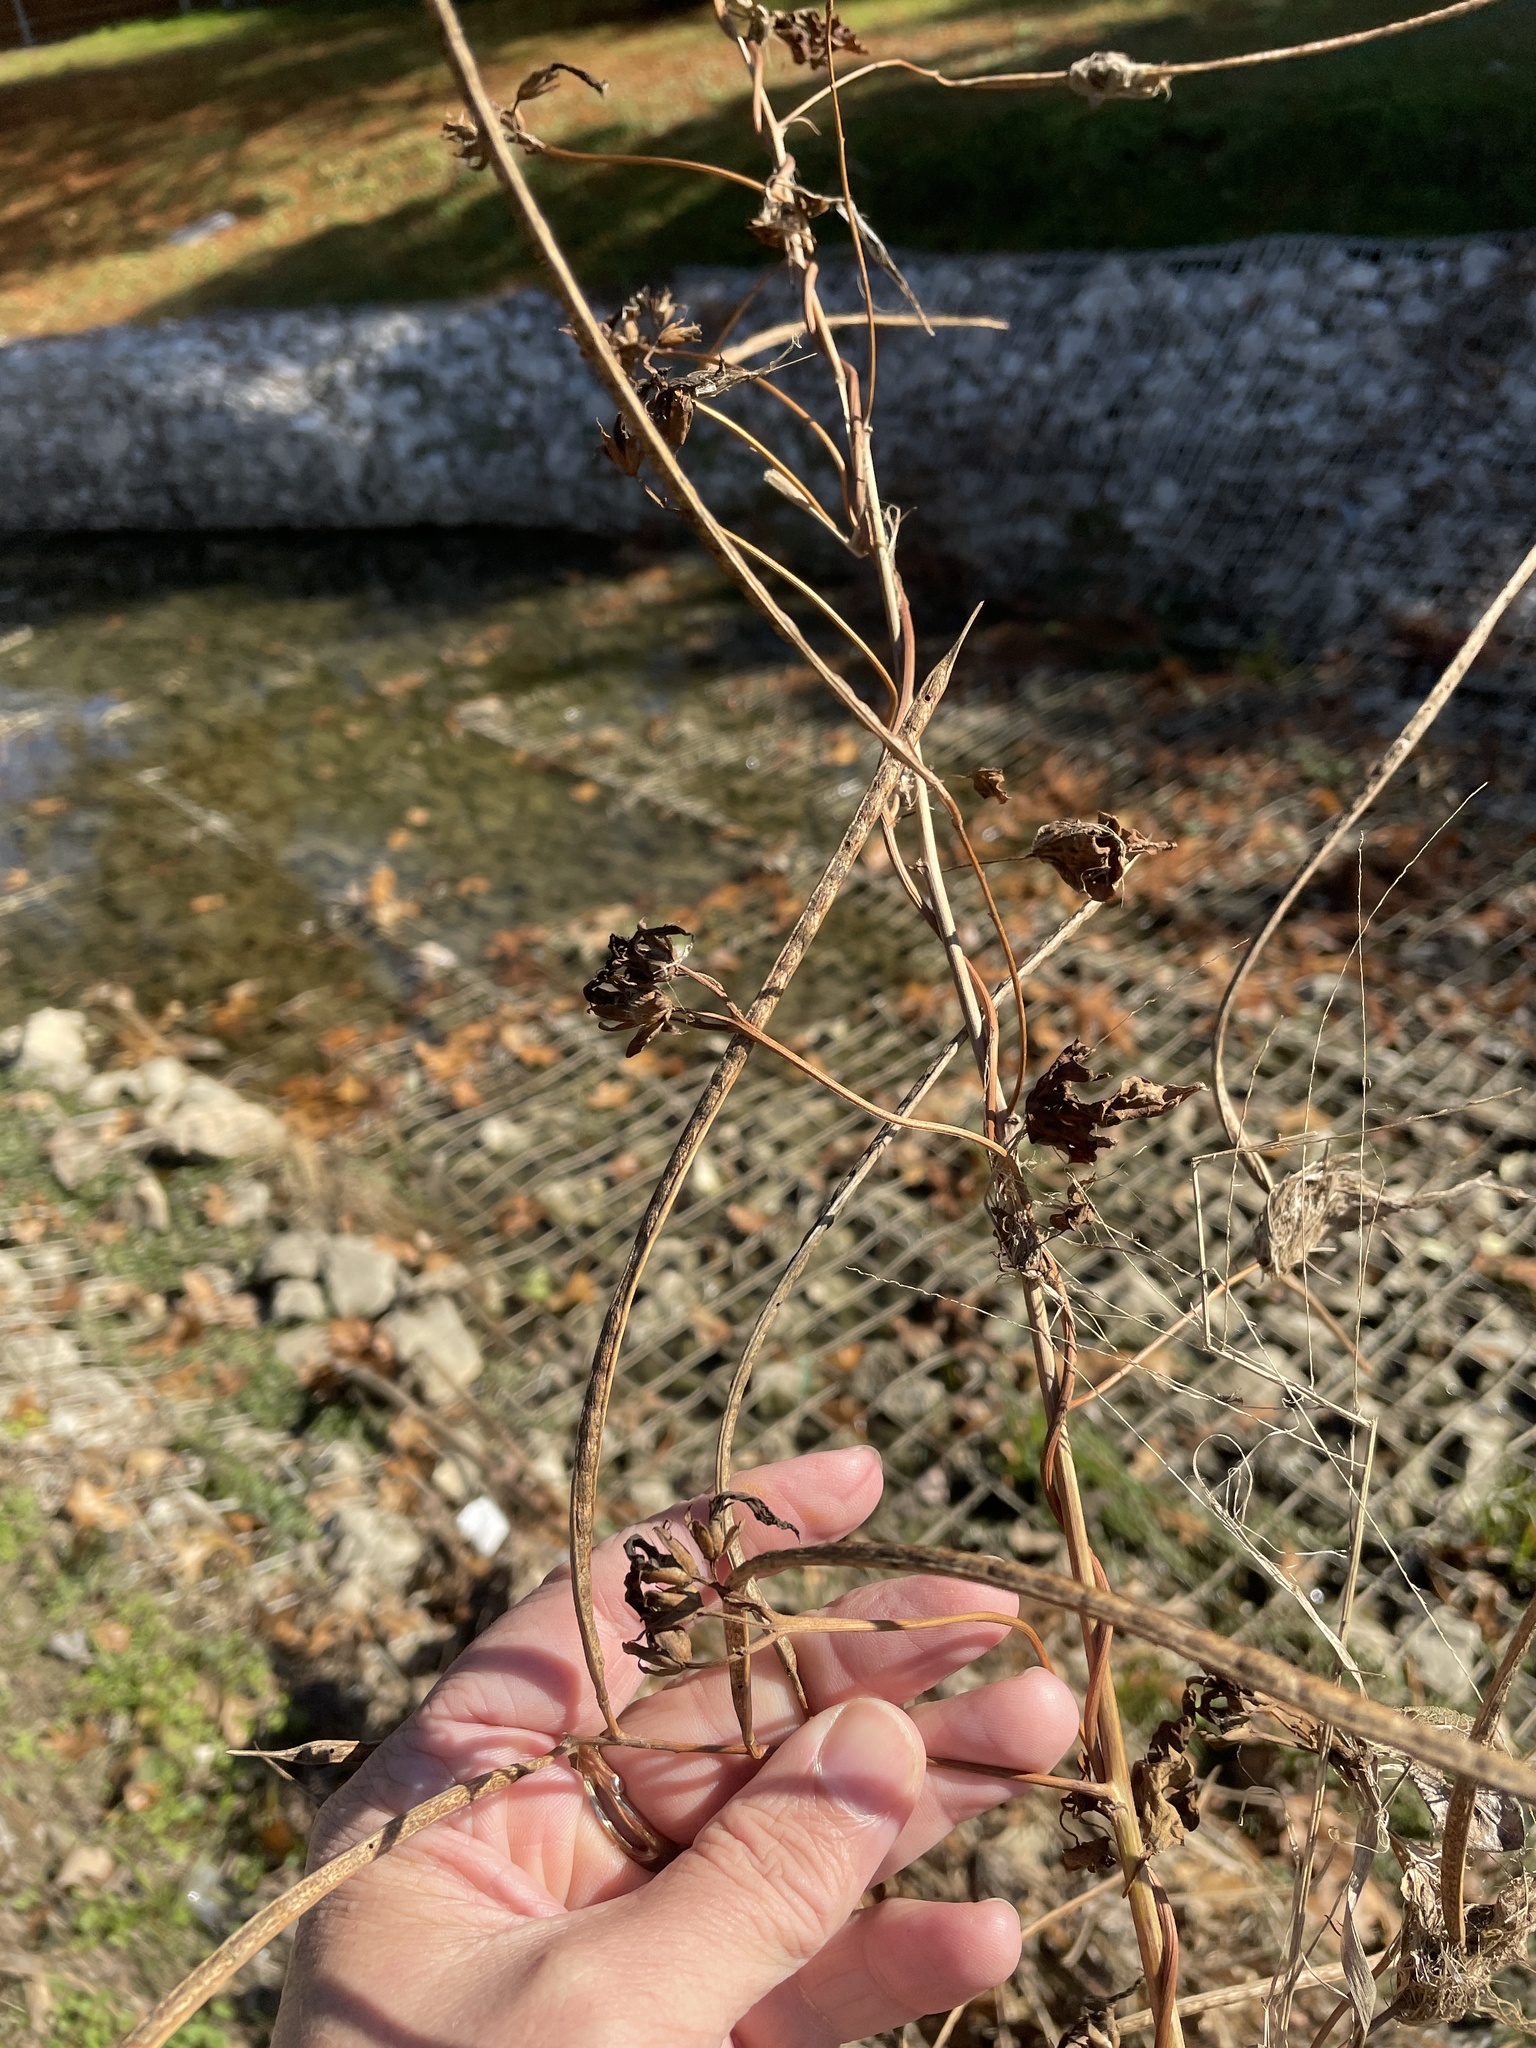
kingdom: Plantae
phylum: Tracheophyta
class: Magnoliopsida
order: Fabales
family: Fabaceae
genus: Sesbania
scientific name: Sesbania herbacea
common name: Bigpod sesbania
